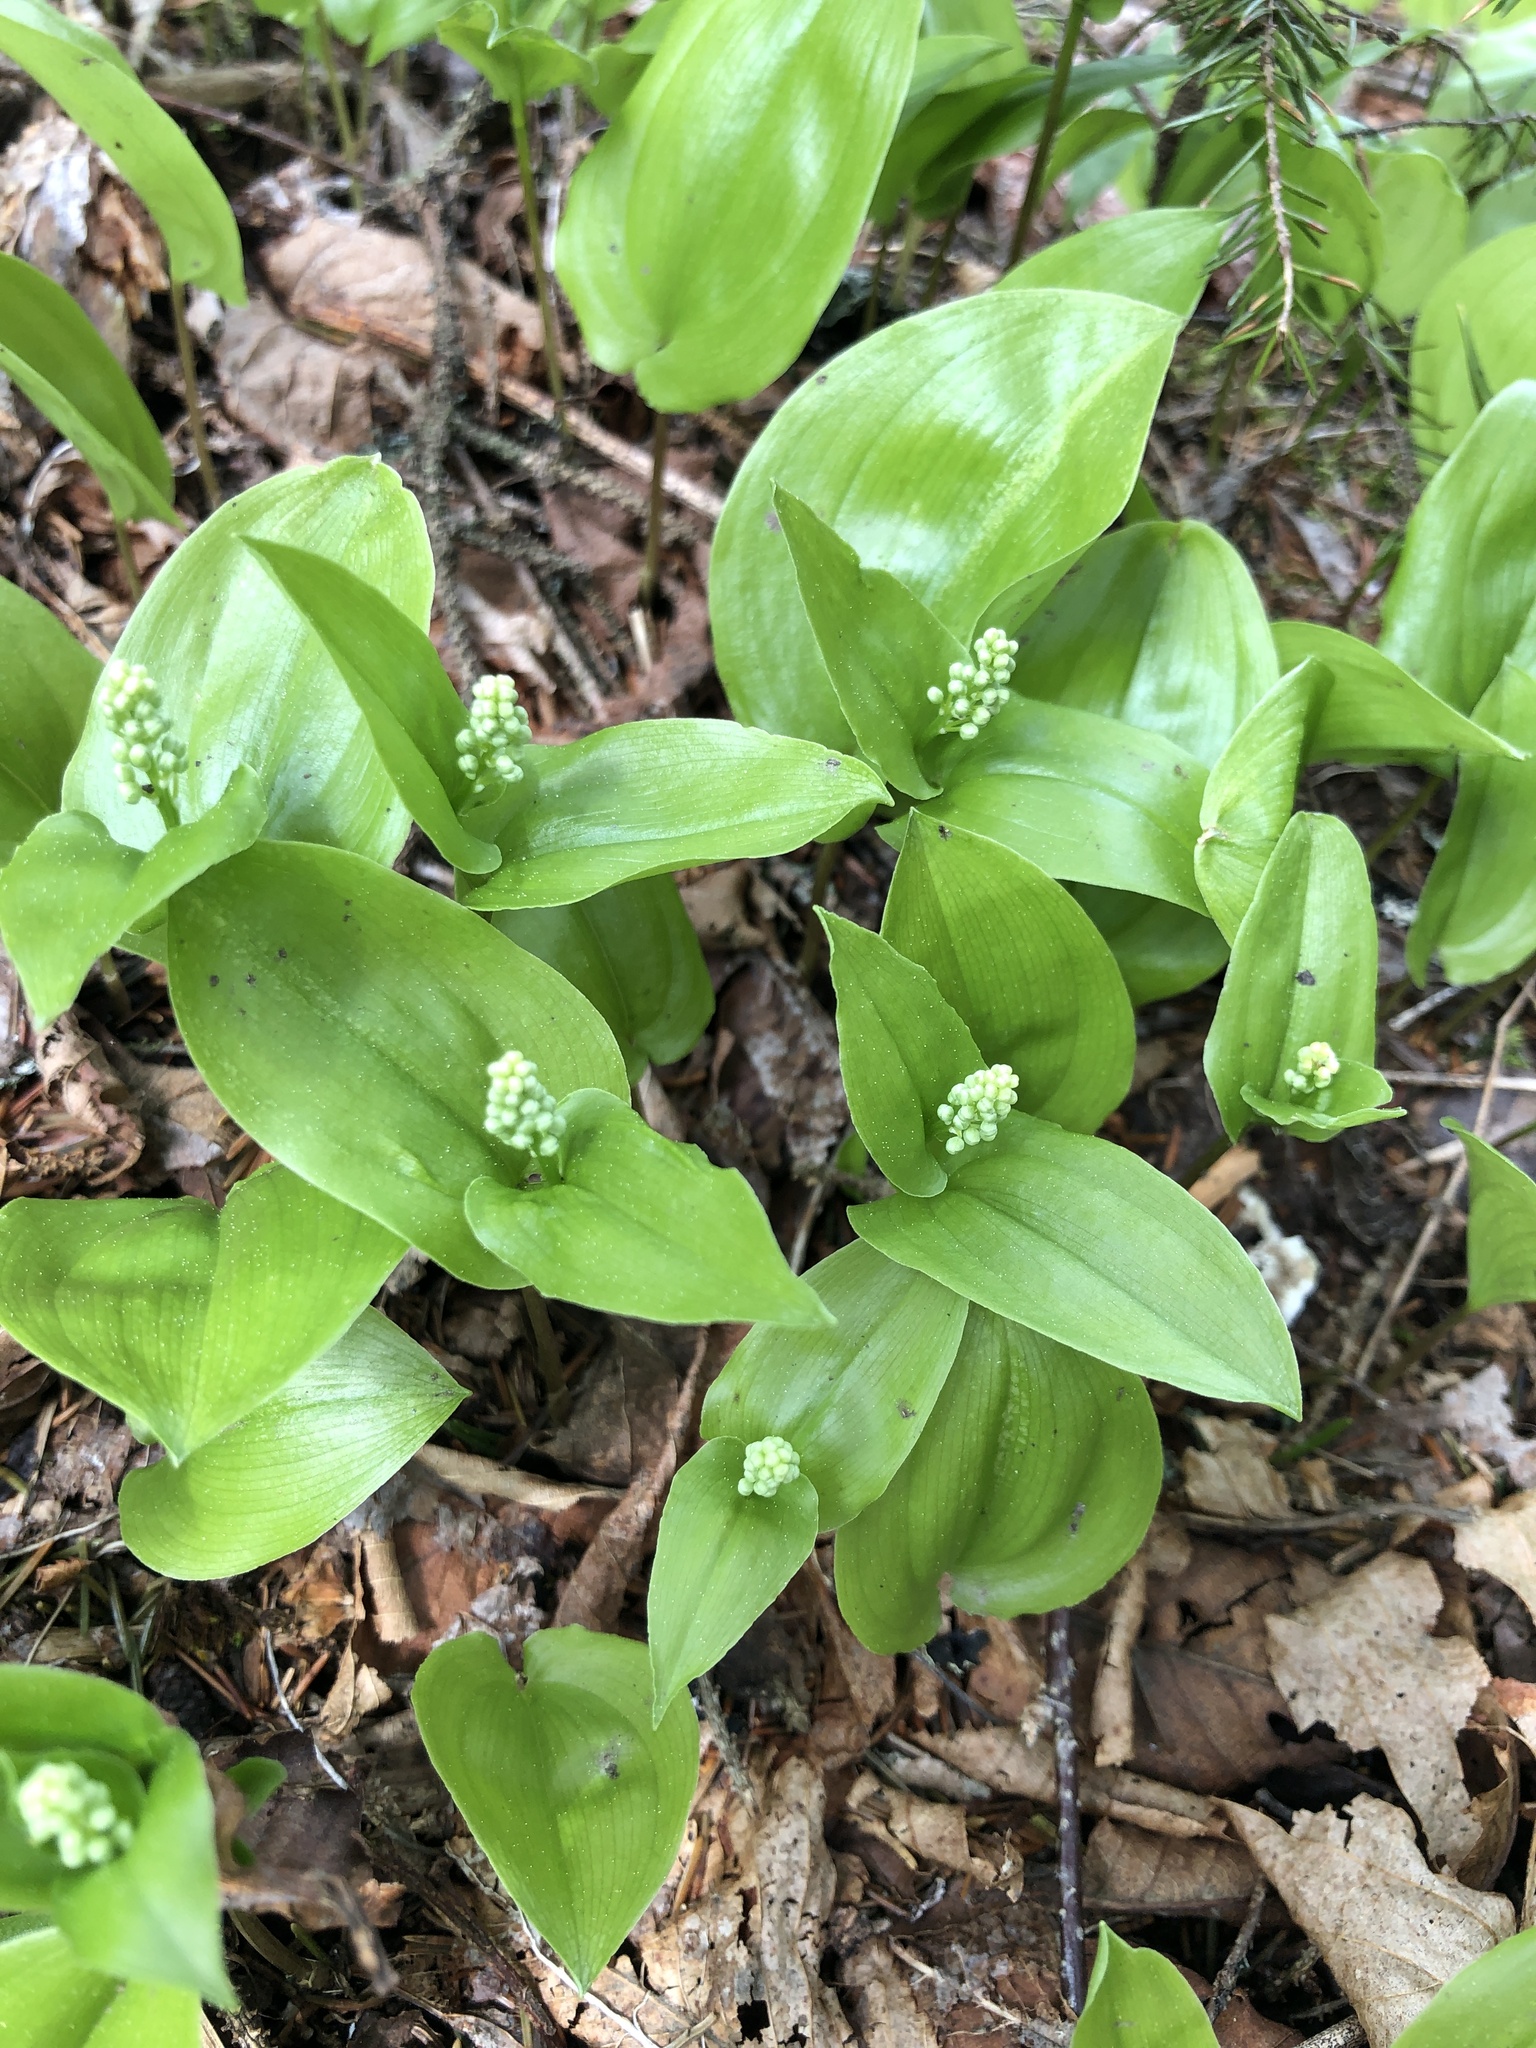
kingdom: Plantae
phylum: Tracheophyta
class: Liliopsida
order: Asparagales
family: Asparagaceae
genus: Maianthemum
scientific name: Maianthemum canadense
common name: False lily-of-the-valley
